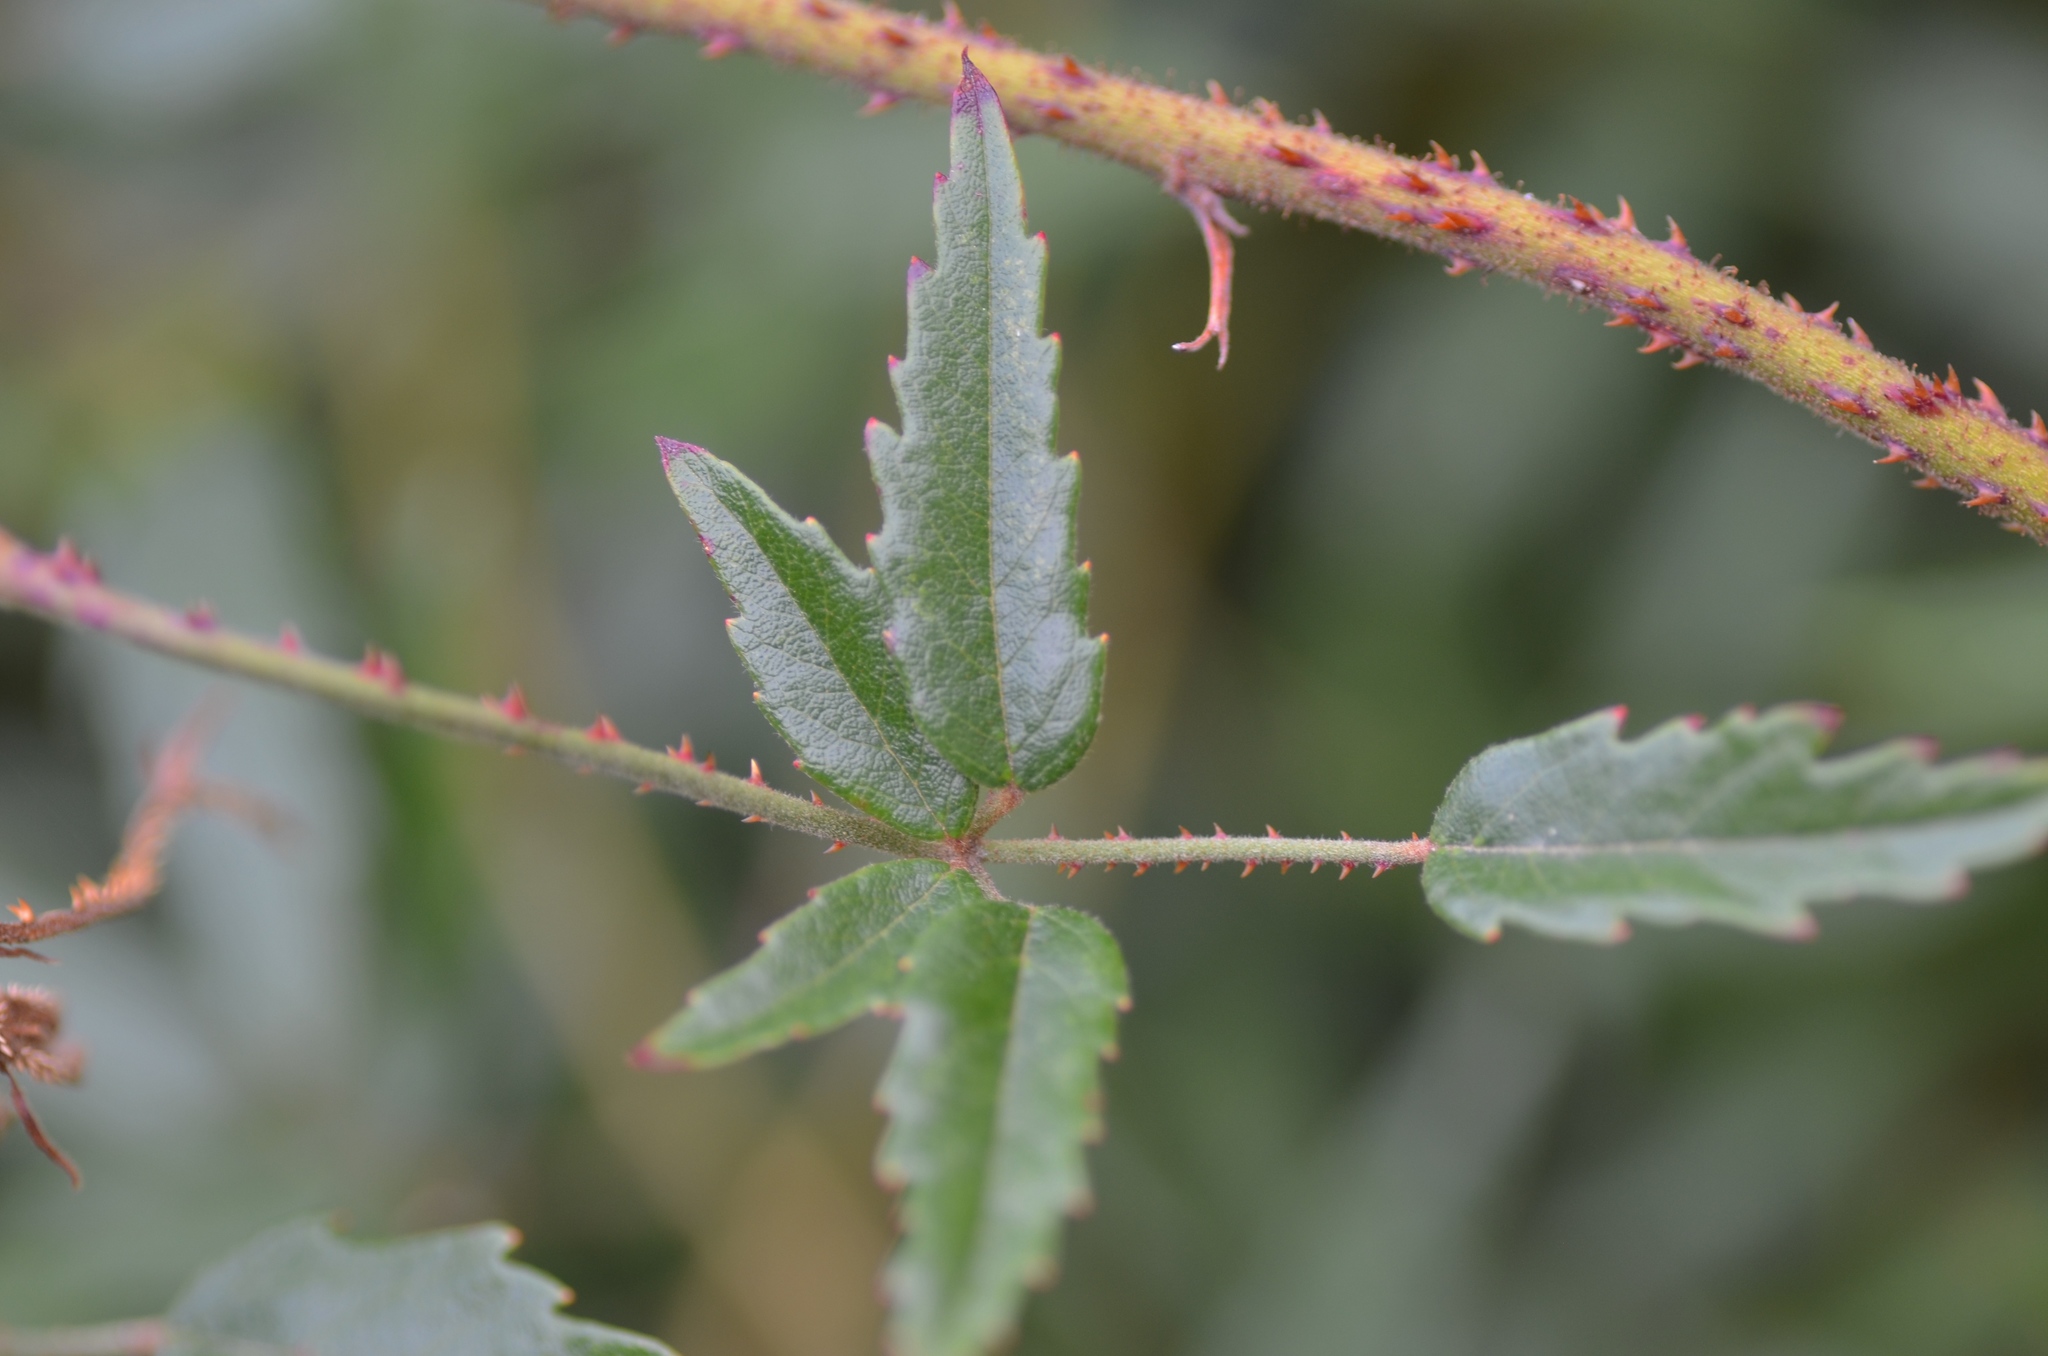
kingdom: Plantae
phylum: Tracheophyta
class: Magnoliopsida
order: Rosales
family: Rosaceae
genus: Rubus
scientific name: Rubus schmidelioides
